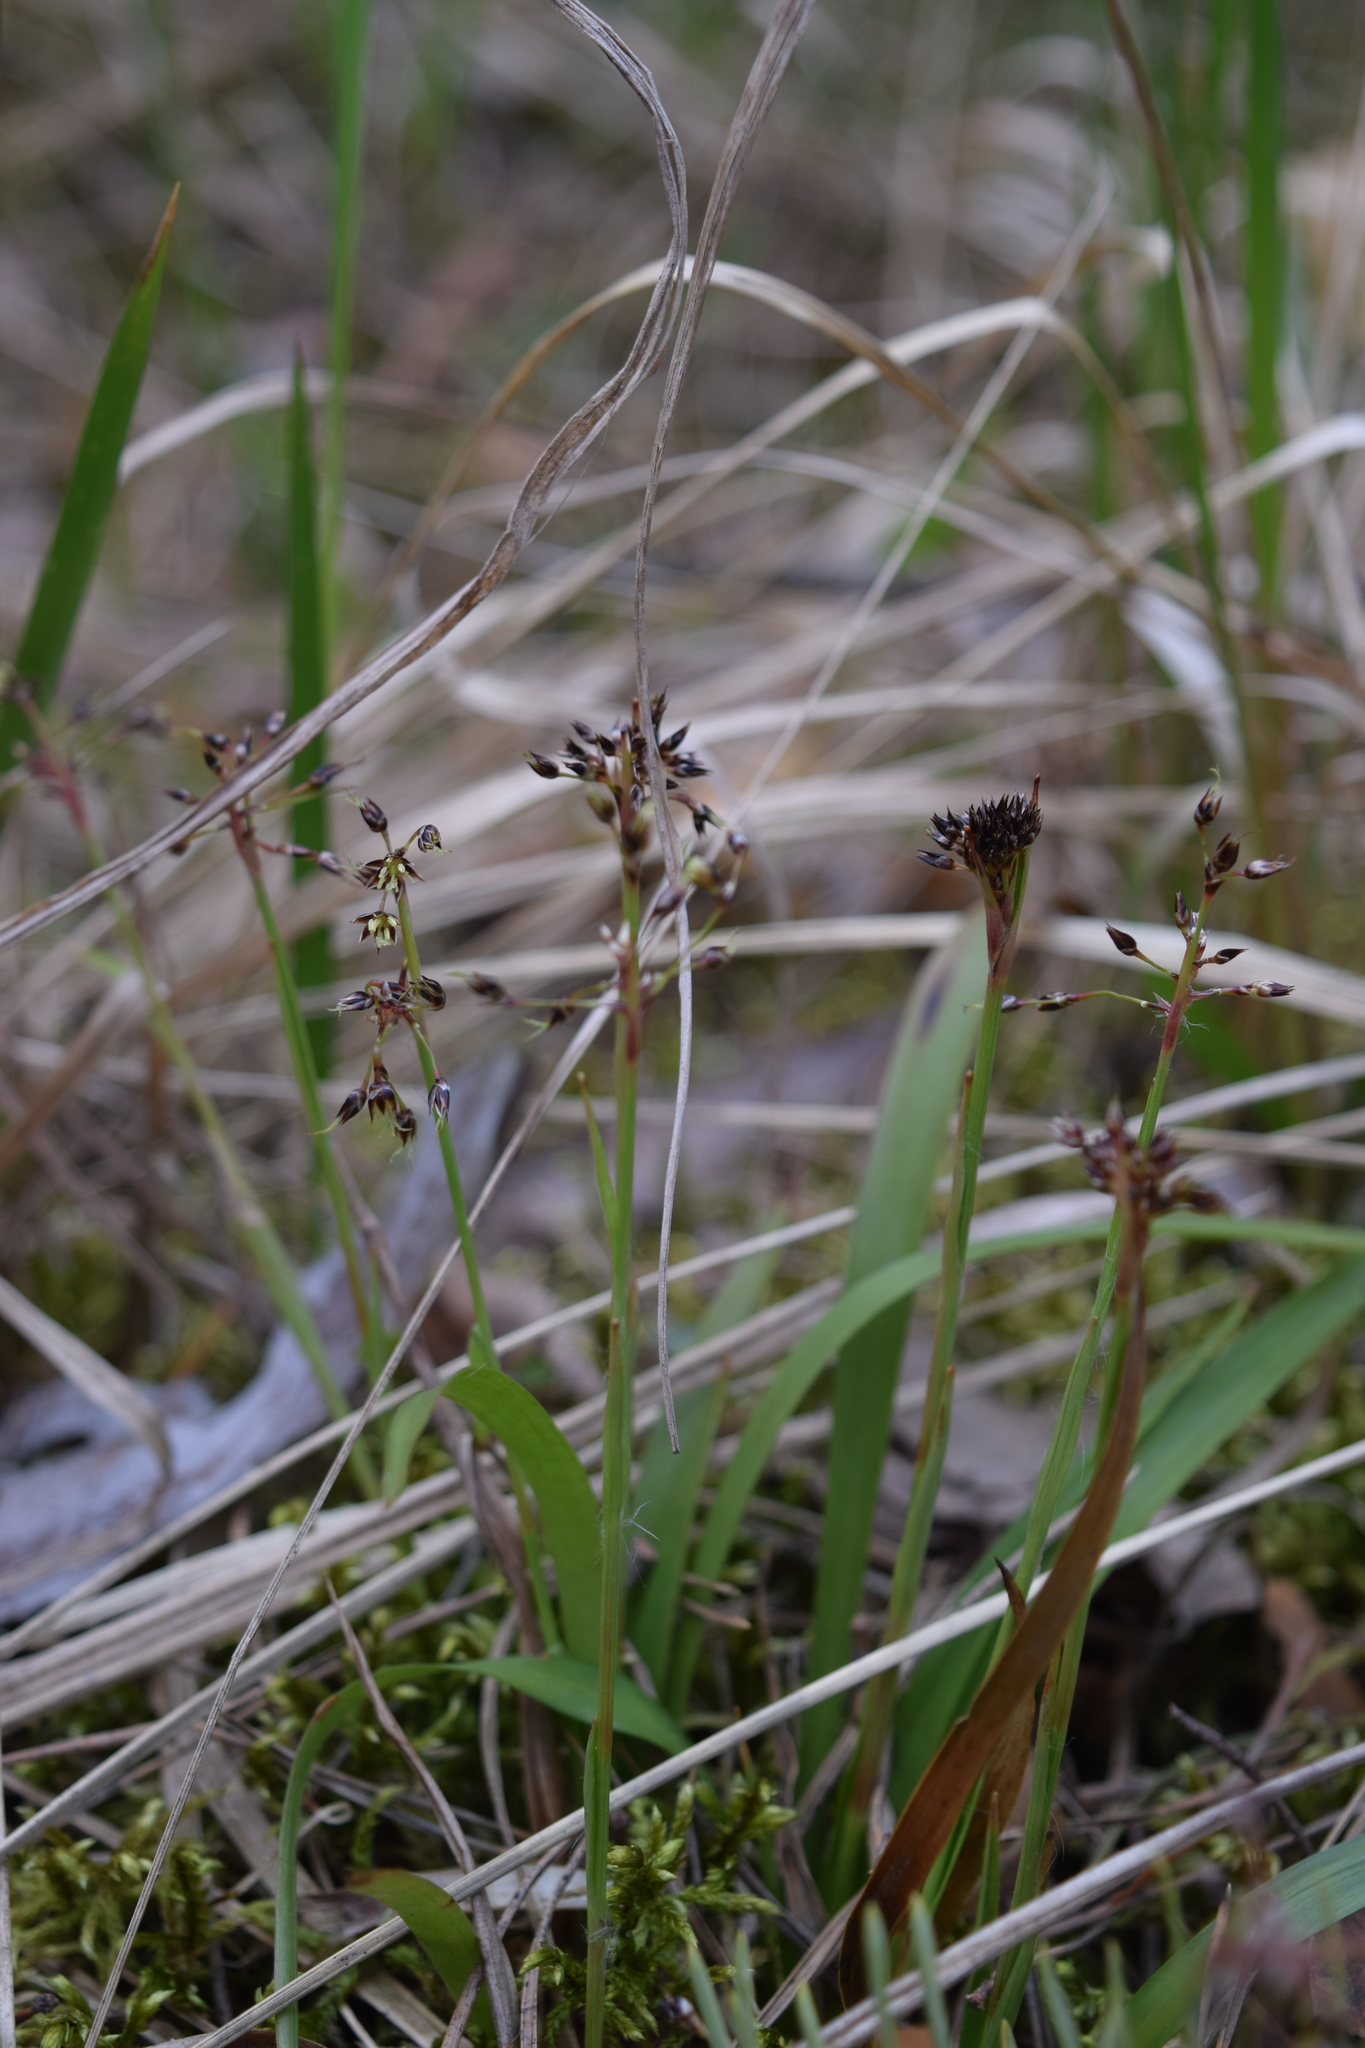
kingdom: Plantae
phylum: Tracheophyta
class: Liliopsida
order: Poales
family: Juncaceae
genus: Luzula
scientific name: Luzula pilosa
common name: Hairy wood-rush
